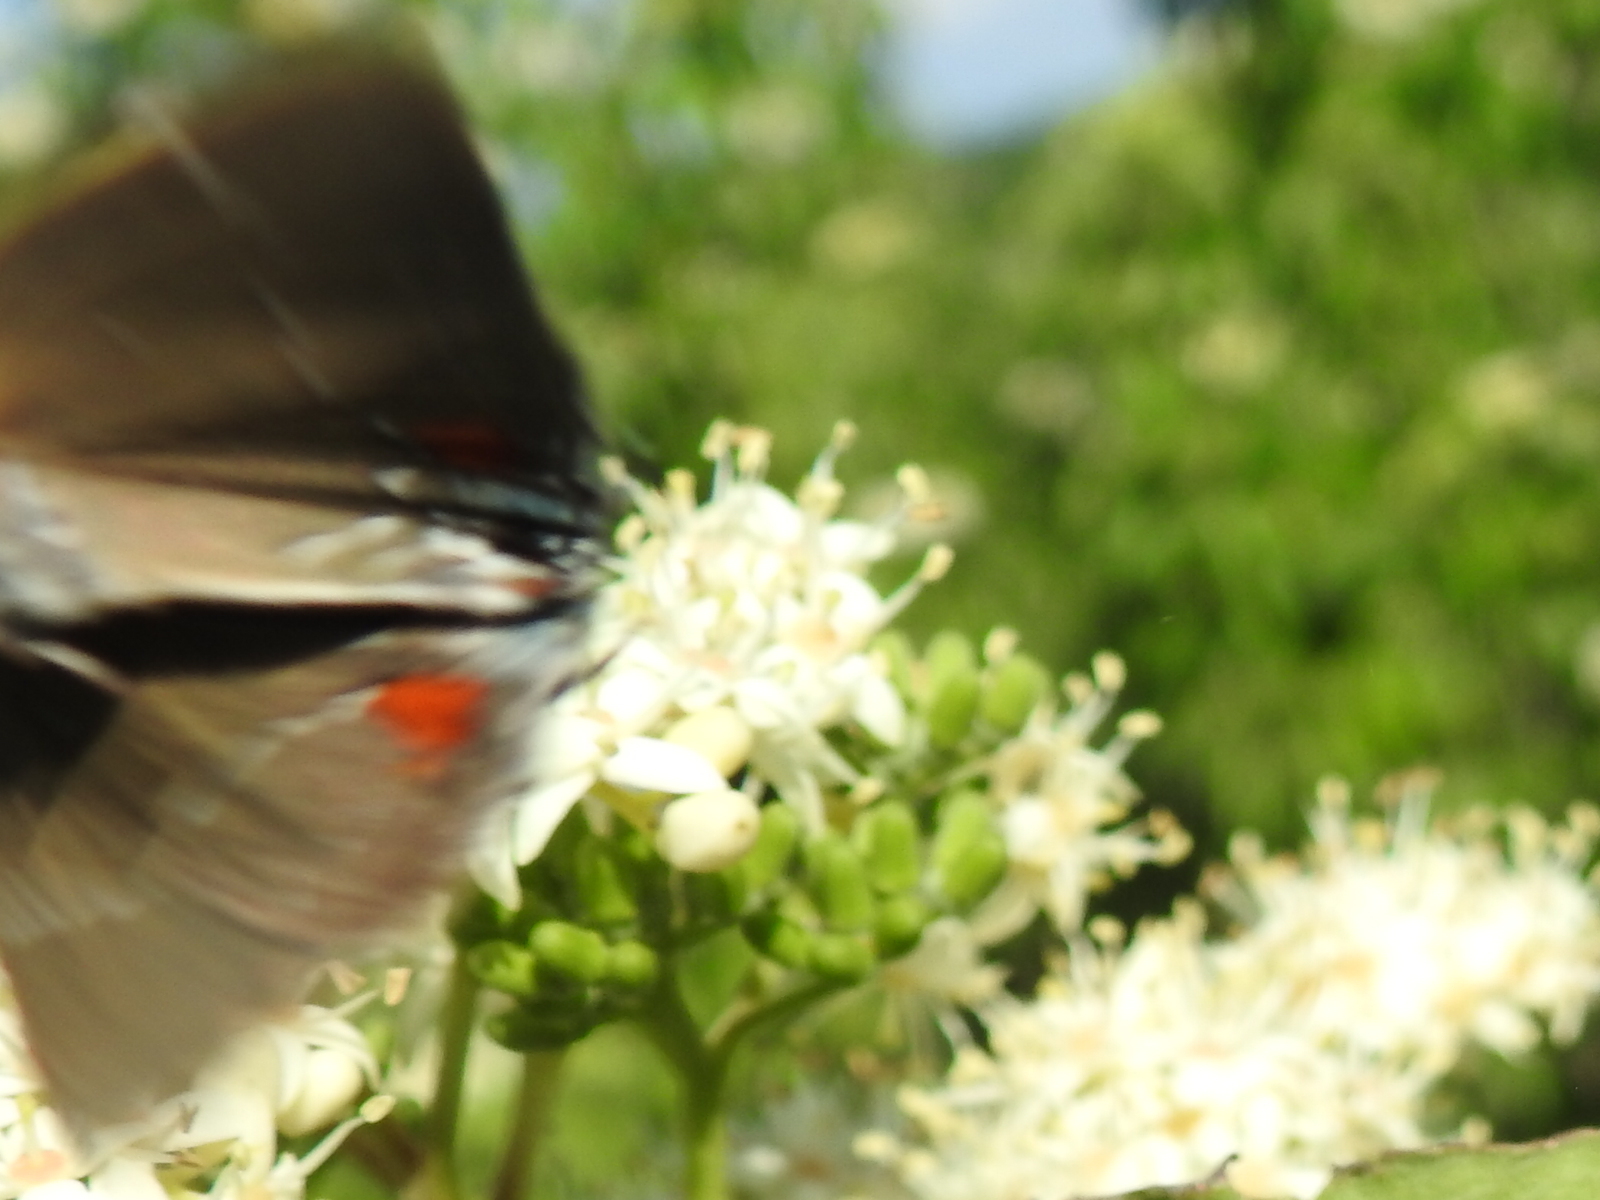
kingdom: Animalia
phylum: Arthropoda
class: Insecta
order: Lepidoptera
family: Lycaenidae
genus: Parrhasius
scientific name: Parrhasius m-album
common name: White m hairstreak
